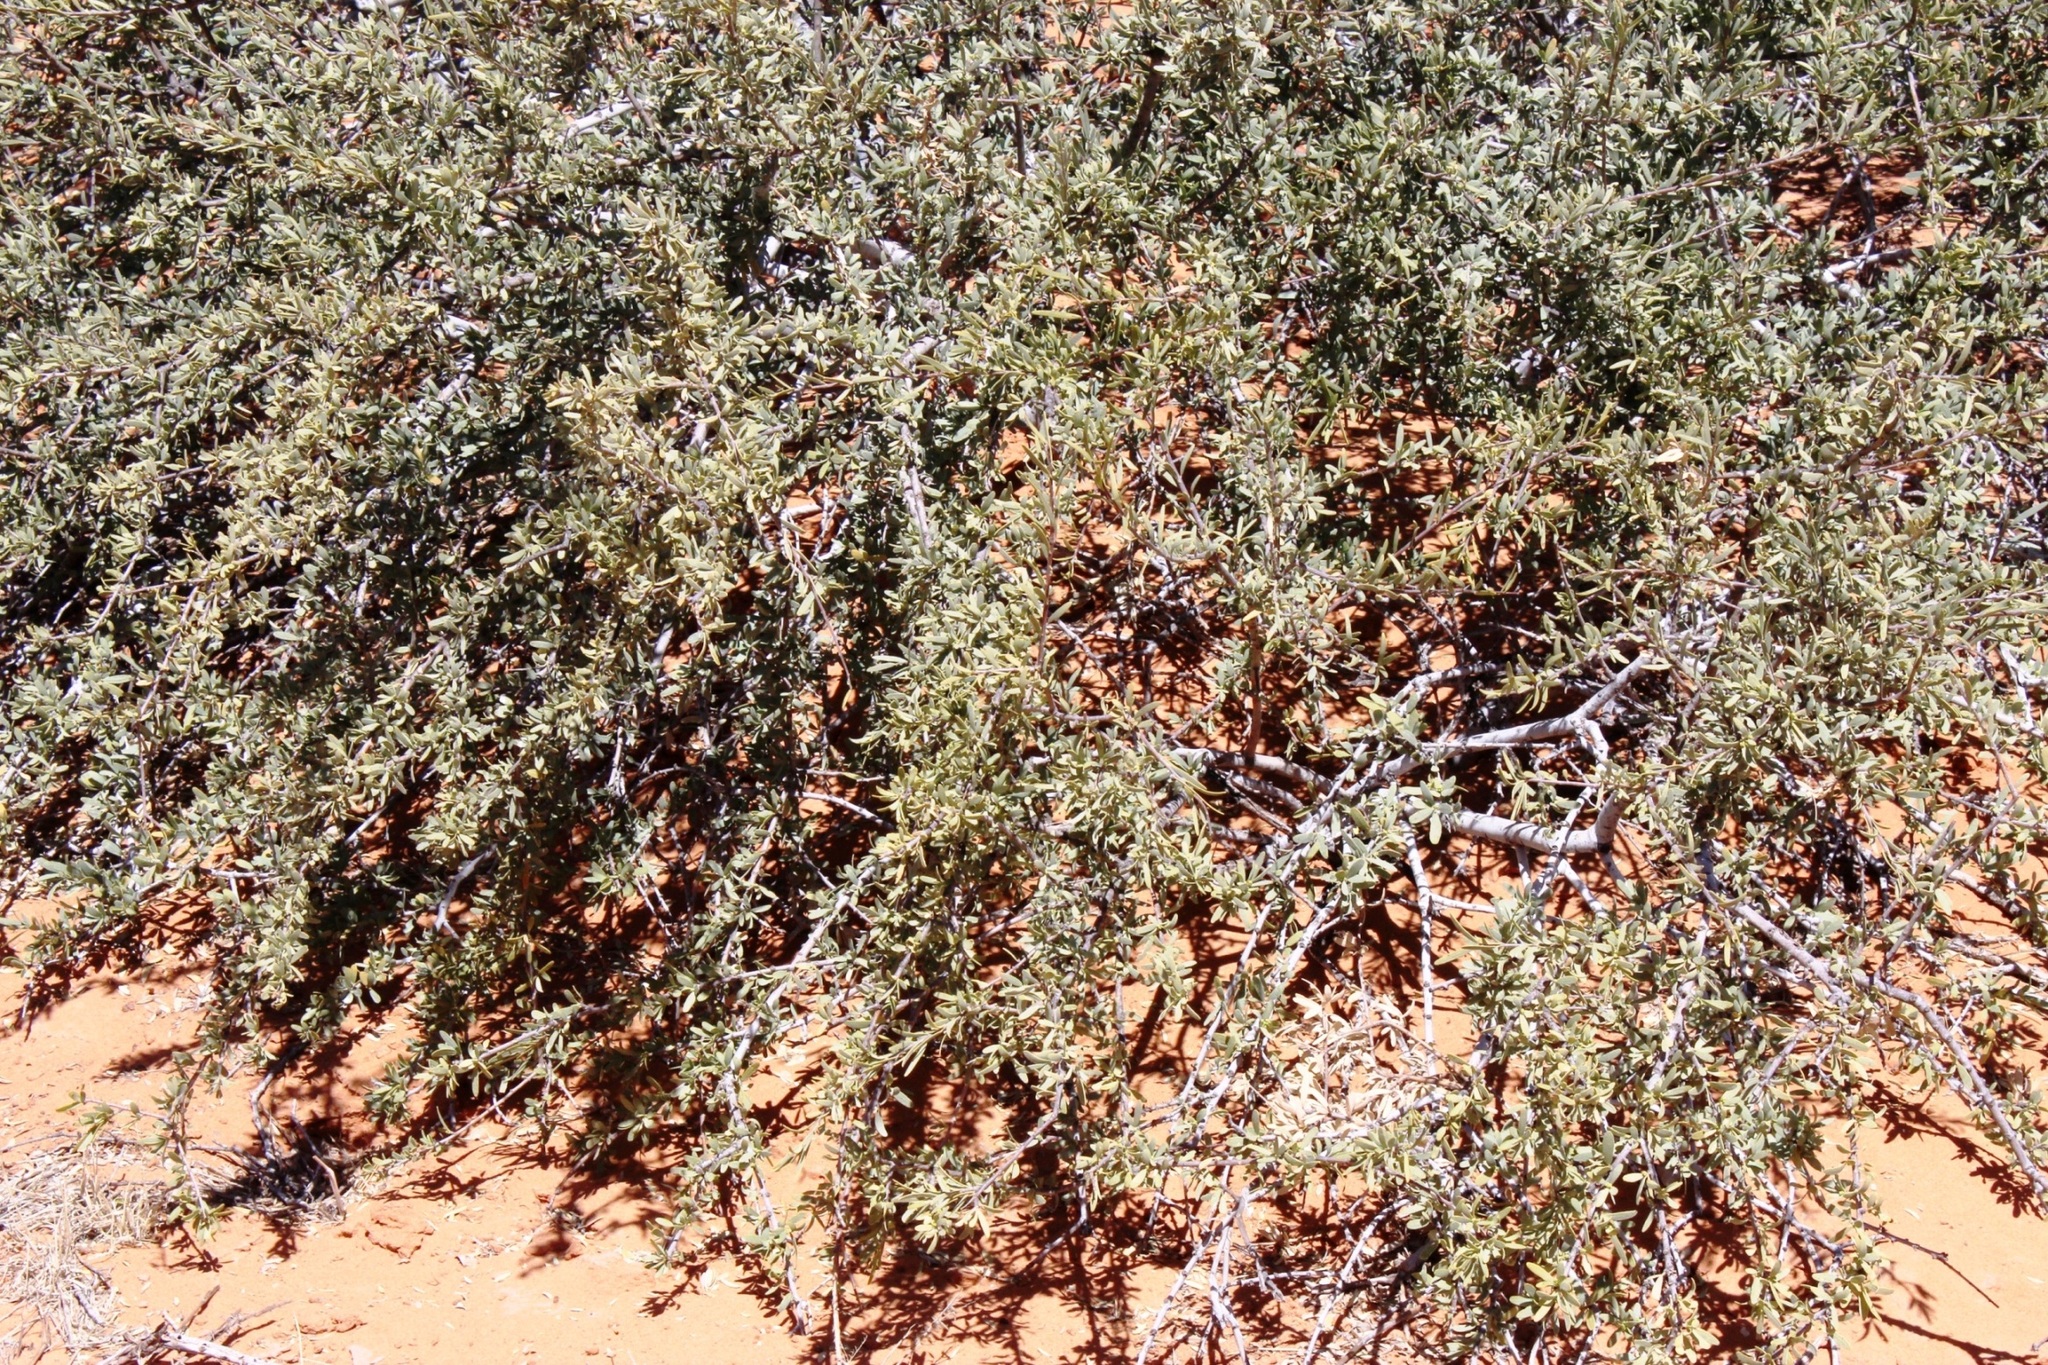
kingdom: Plantae
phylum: Tracheophyta
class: Magnoliopsida
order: Brassicales
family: Capparaceae
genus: Boscia
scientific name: Boscia albitrunca
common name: Caper bush
